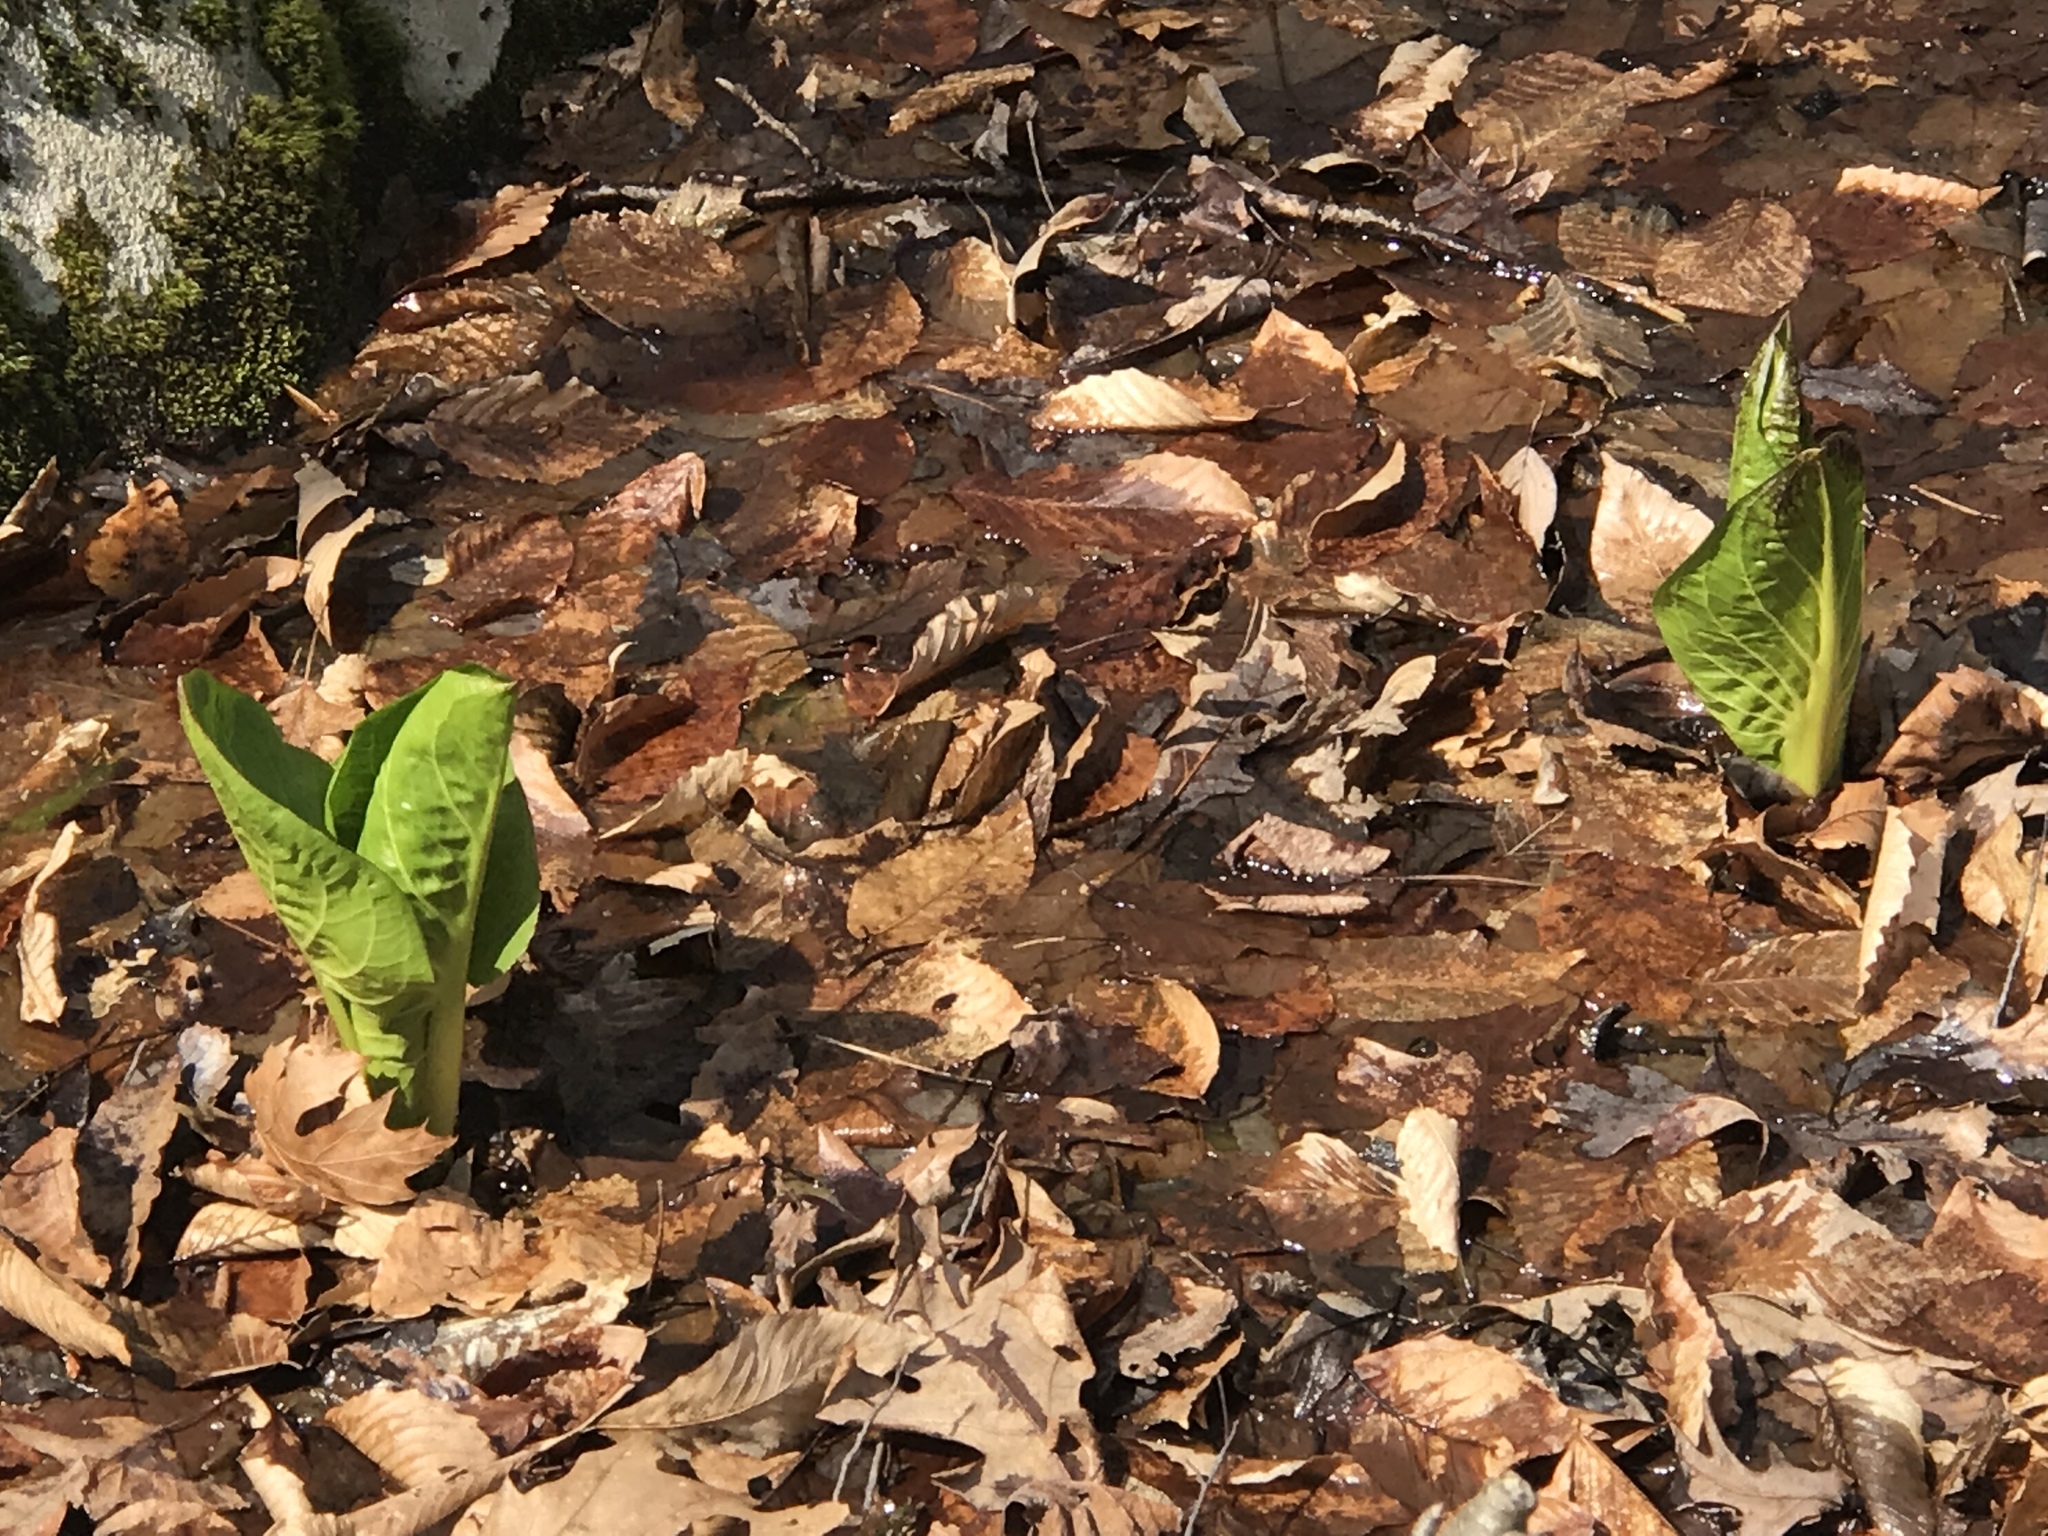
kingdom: Plantae
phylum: Tracheophyta
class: Liliopsida
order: Alismatales
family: Araceae
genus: Symplocarpus
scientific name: Symplocarpus foetidus
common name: Eastern skunk cabbage
